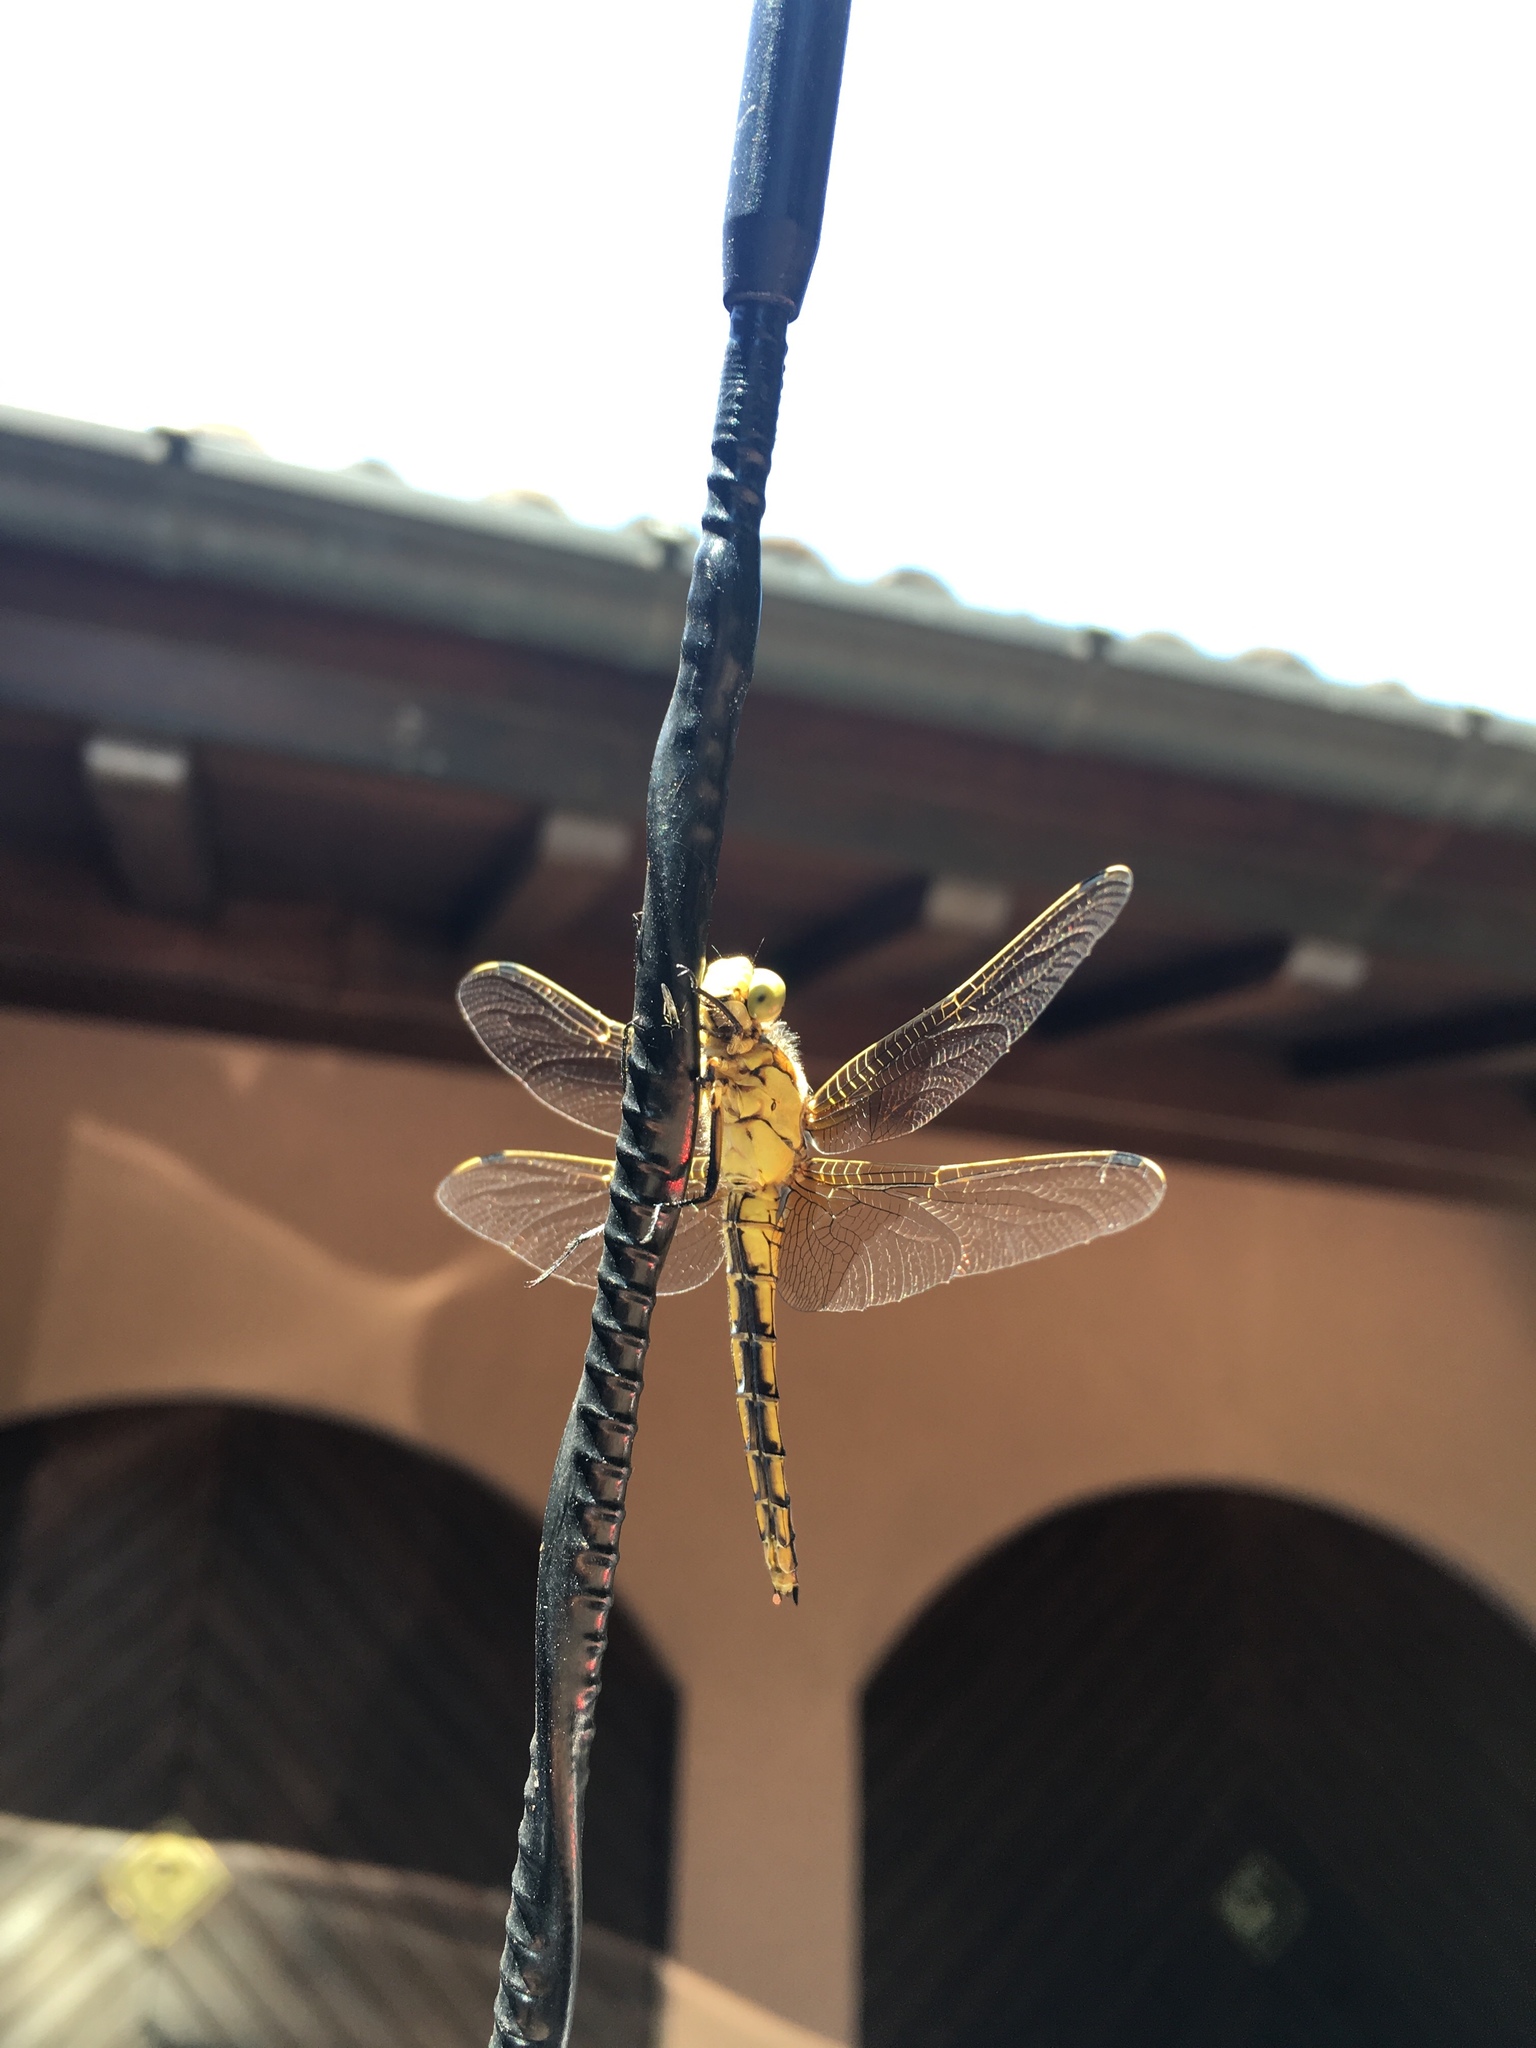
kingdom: Animalia
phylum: Arthropoda
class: Insecta
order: Odonata
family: Libellulidae
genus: Orthetrum
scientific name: Orthetrum cancellatum
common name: Black-tailed skimmer
